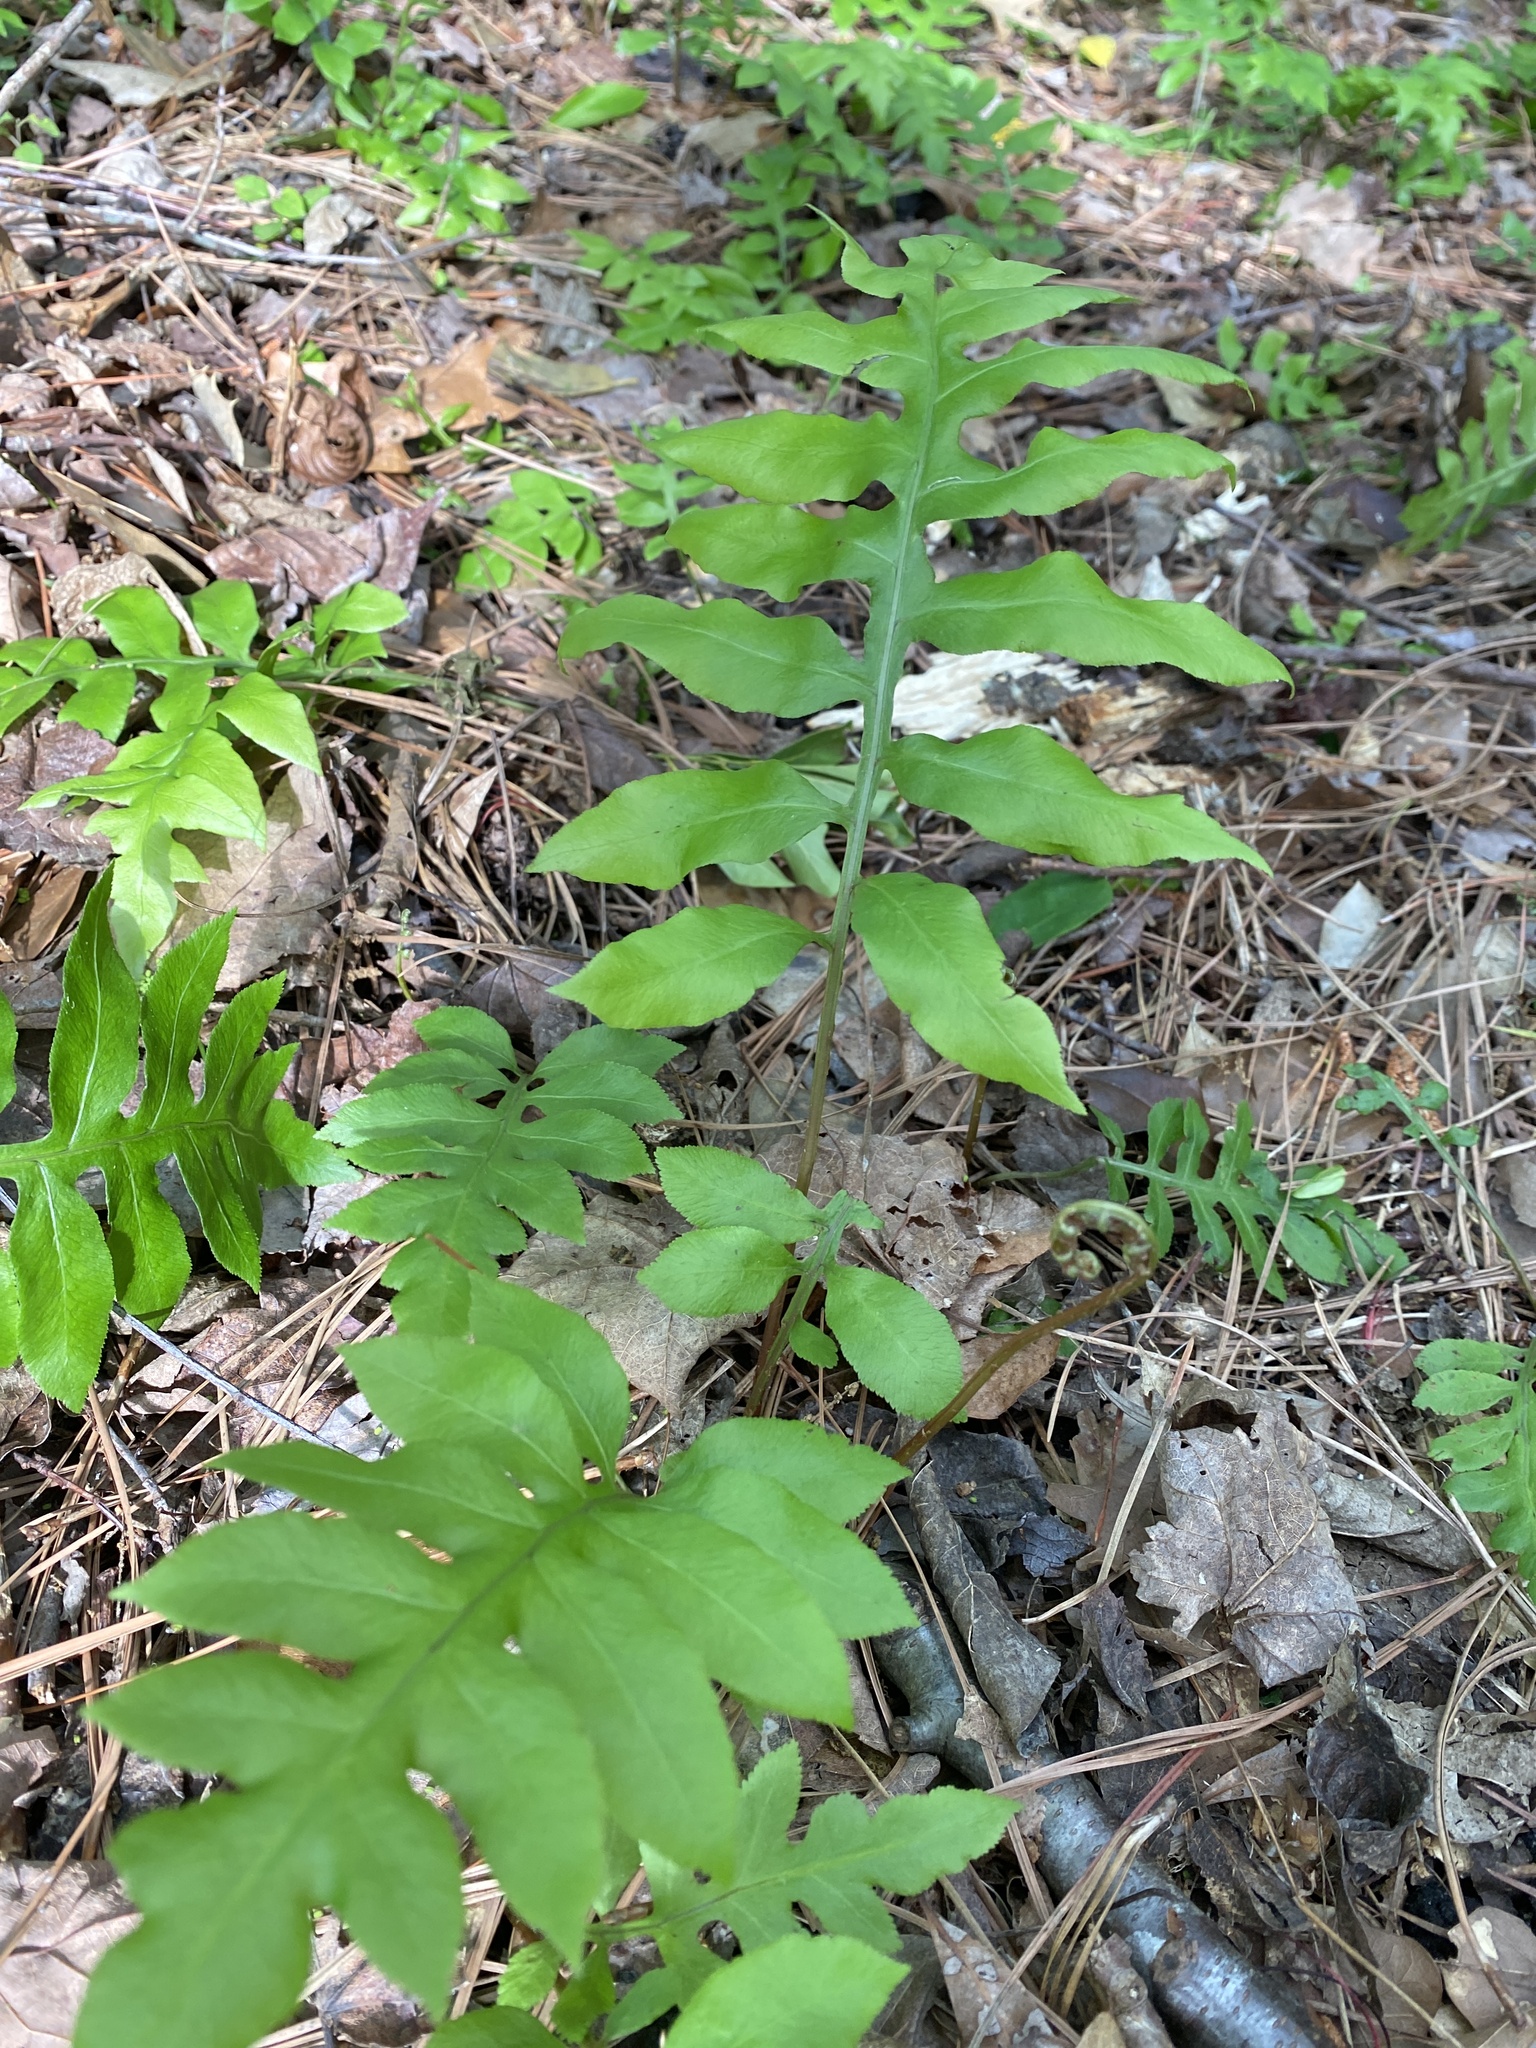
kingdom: Plantae
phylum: Tracheophyta
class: Polypodiopsida
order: Polypodiales
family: Blechnaceae
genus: Lorinseria
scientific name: Lorinseria areolata
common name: Dwarf chain fern
